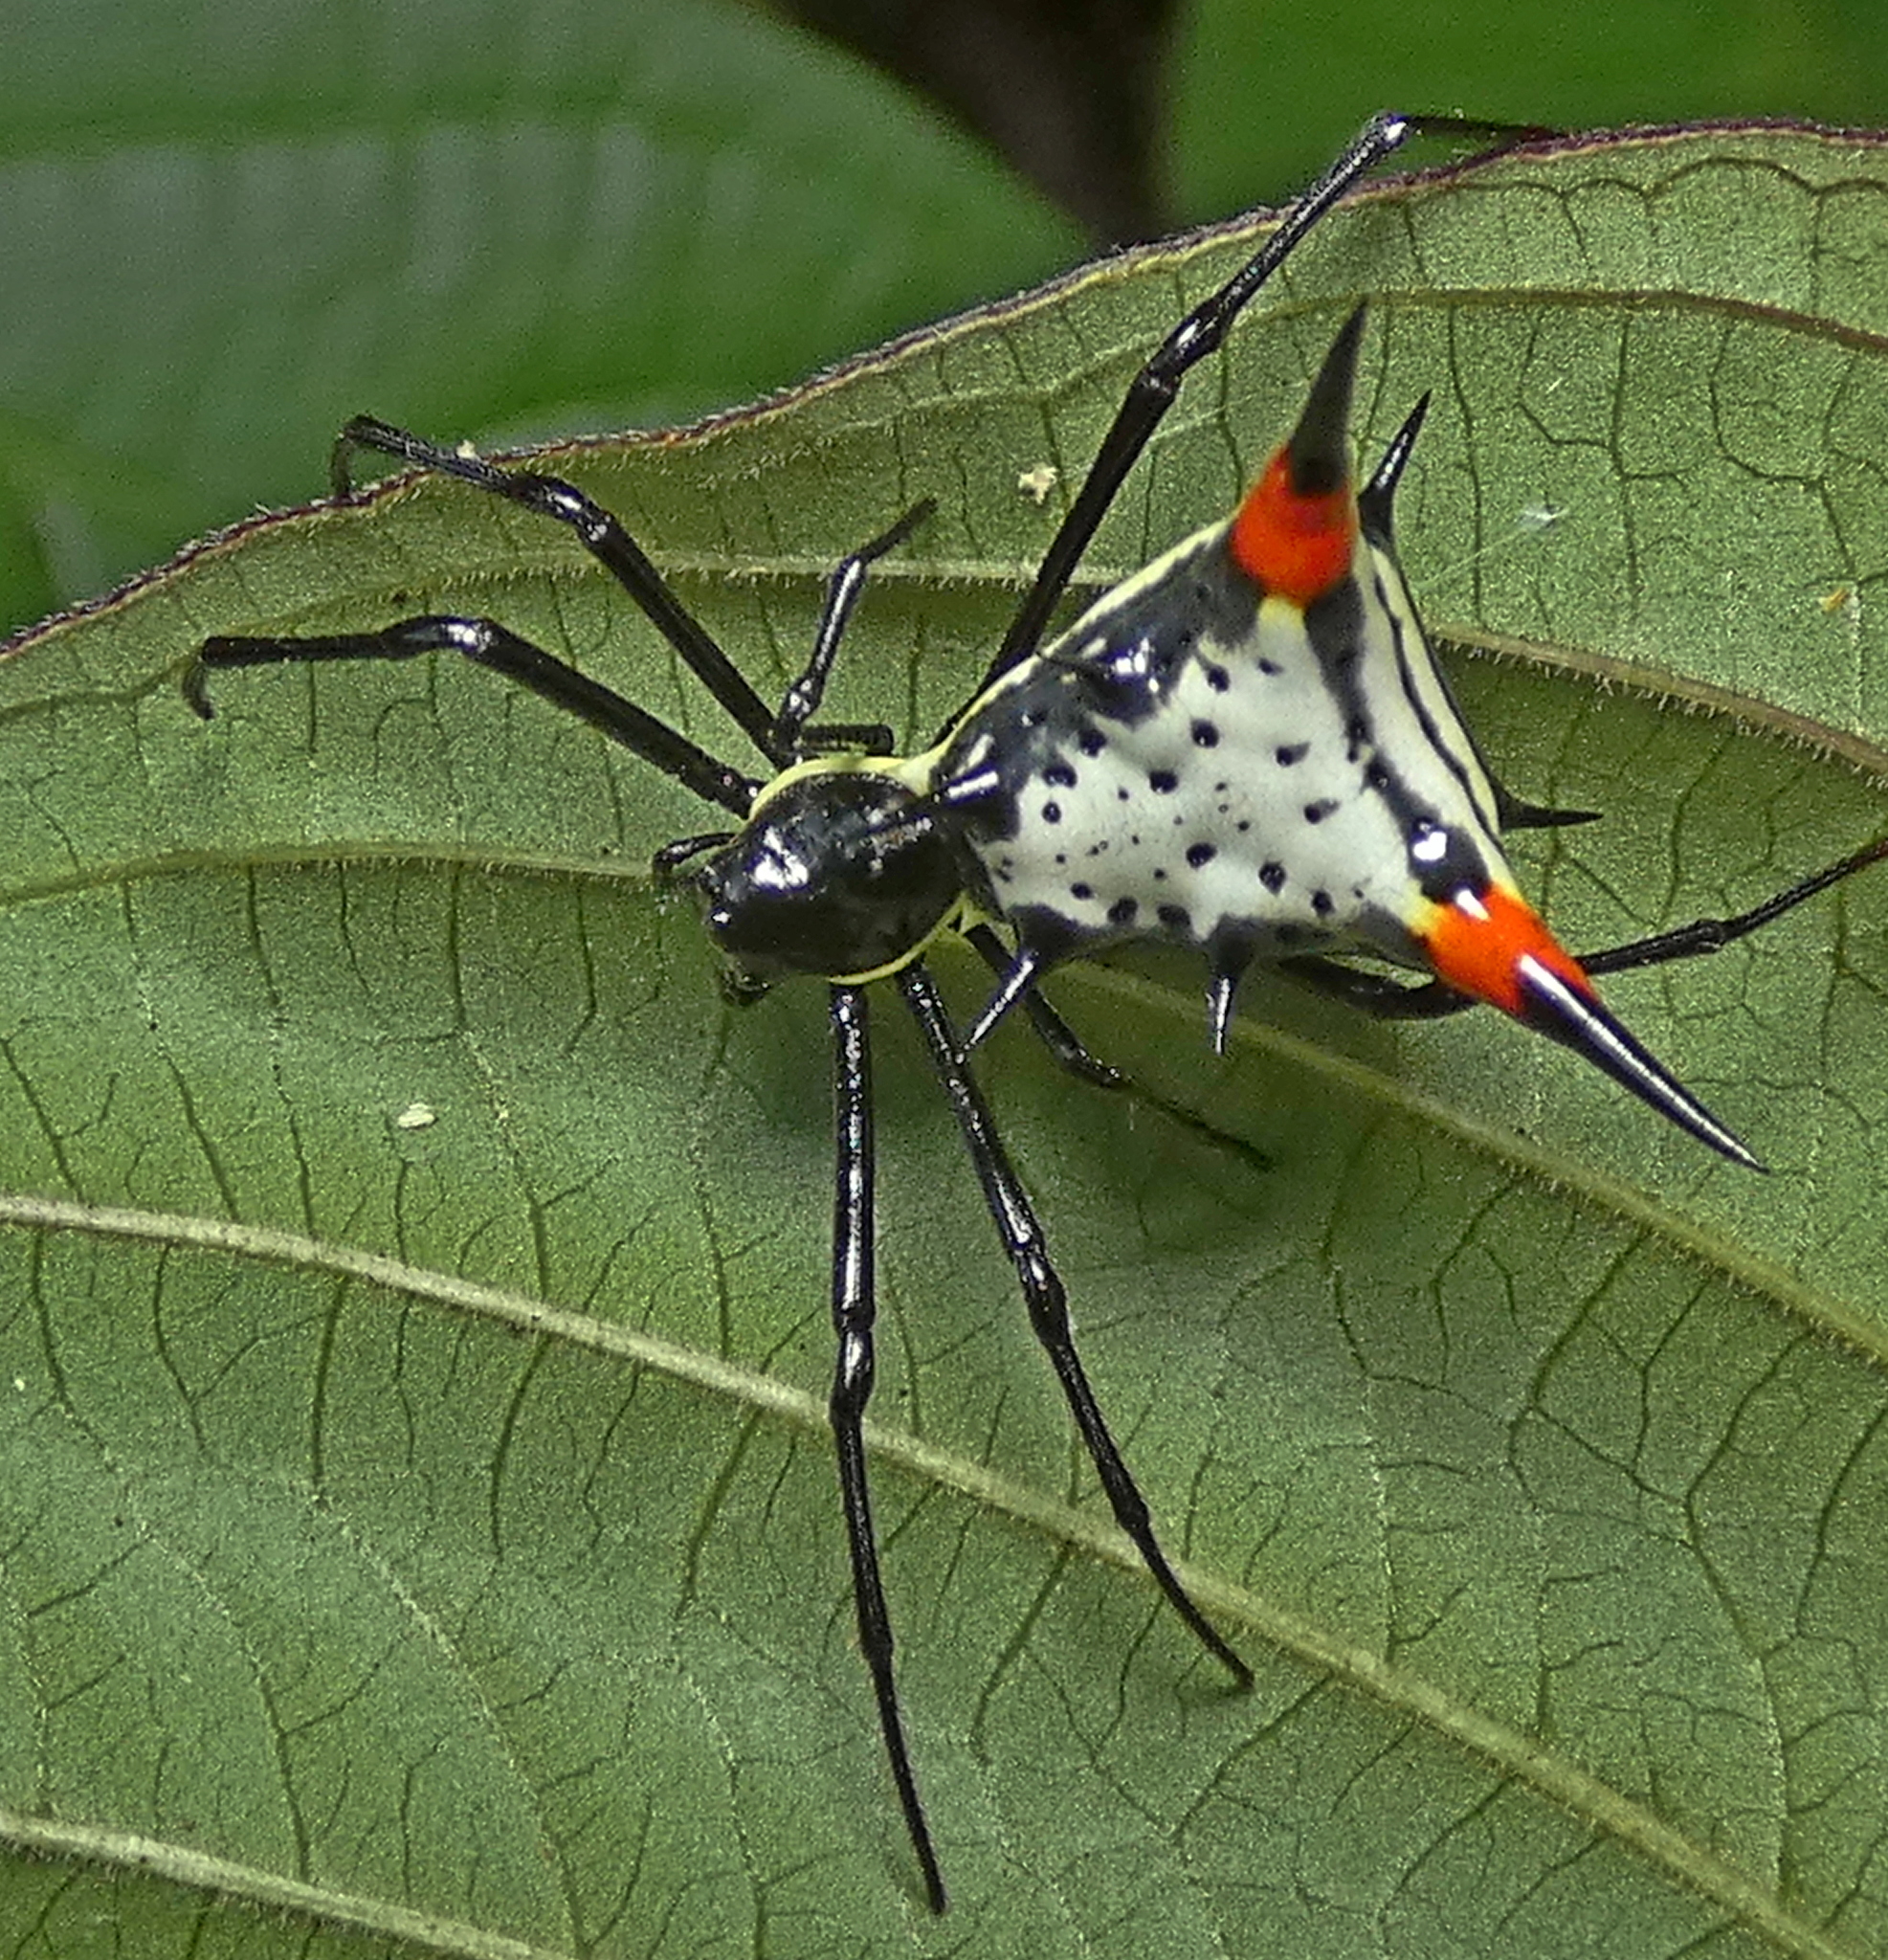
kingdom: Animalia
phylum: Arthropoda
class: Arachnida
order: Araneae
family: Araneidae
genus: Micrathena
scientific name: Micrathena schreibersi
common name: Orb weavers
